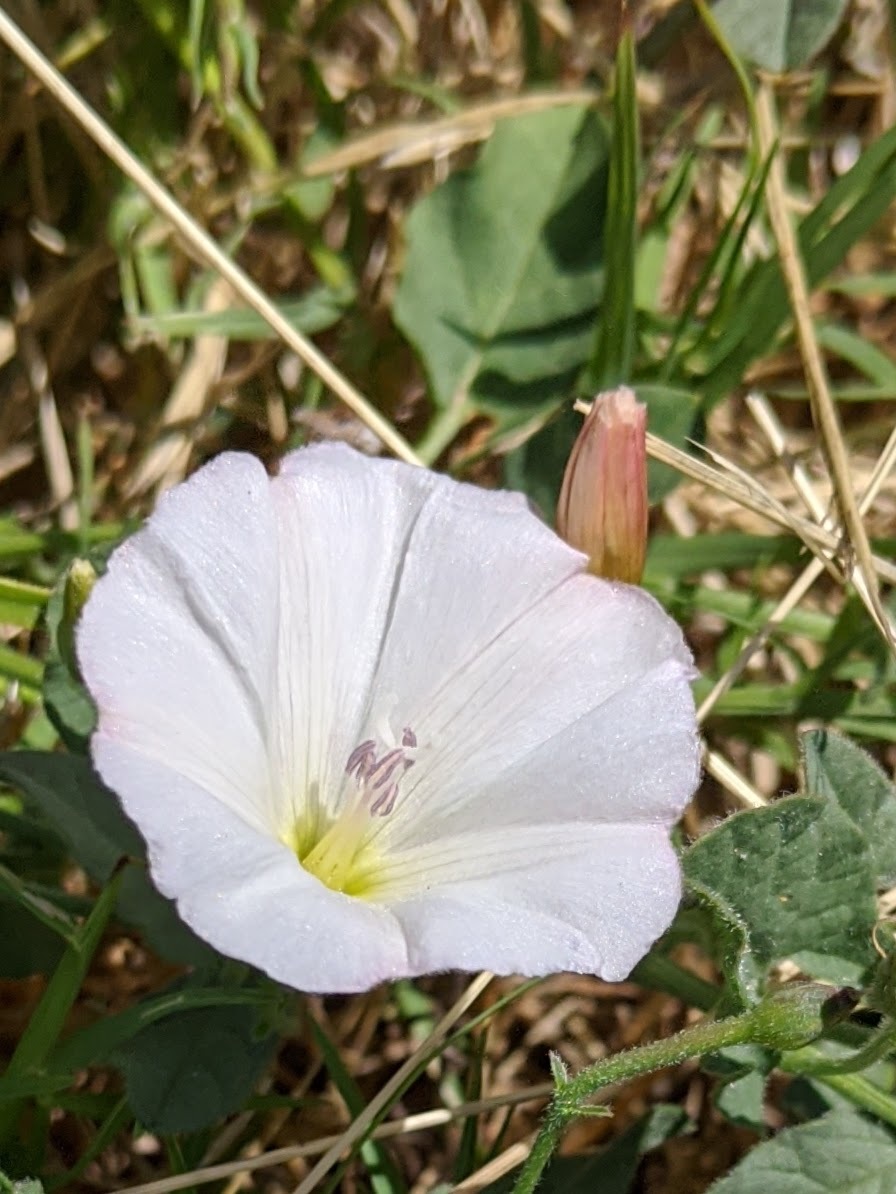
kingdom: Plantae
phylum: Tracheophyta
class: Magnoliopsida
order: Solanales
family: Convolvulaceae
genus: Convolvulus
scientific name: Convolvulus arvensis
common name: Field bindweed
